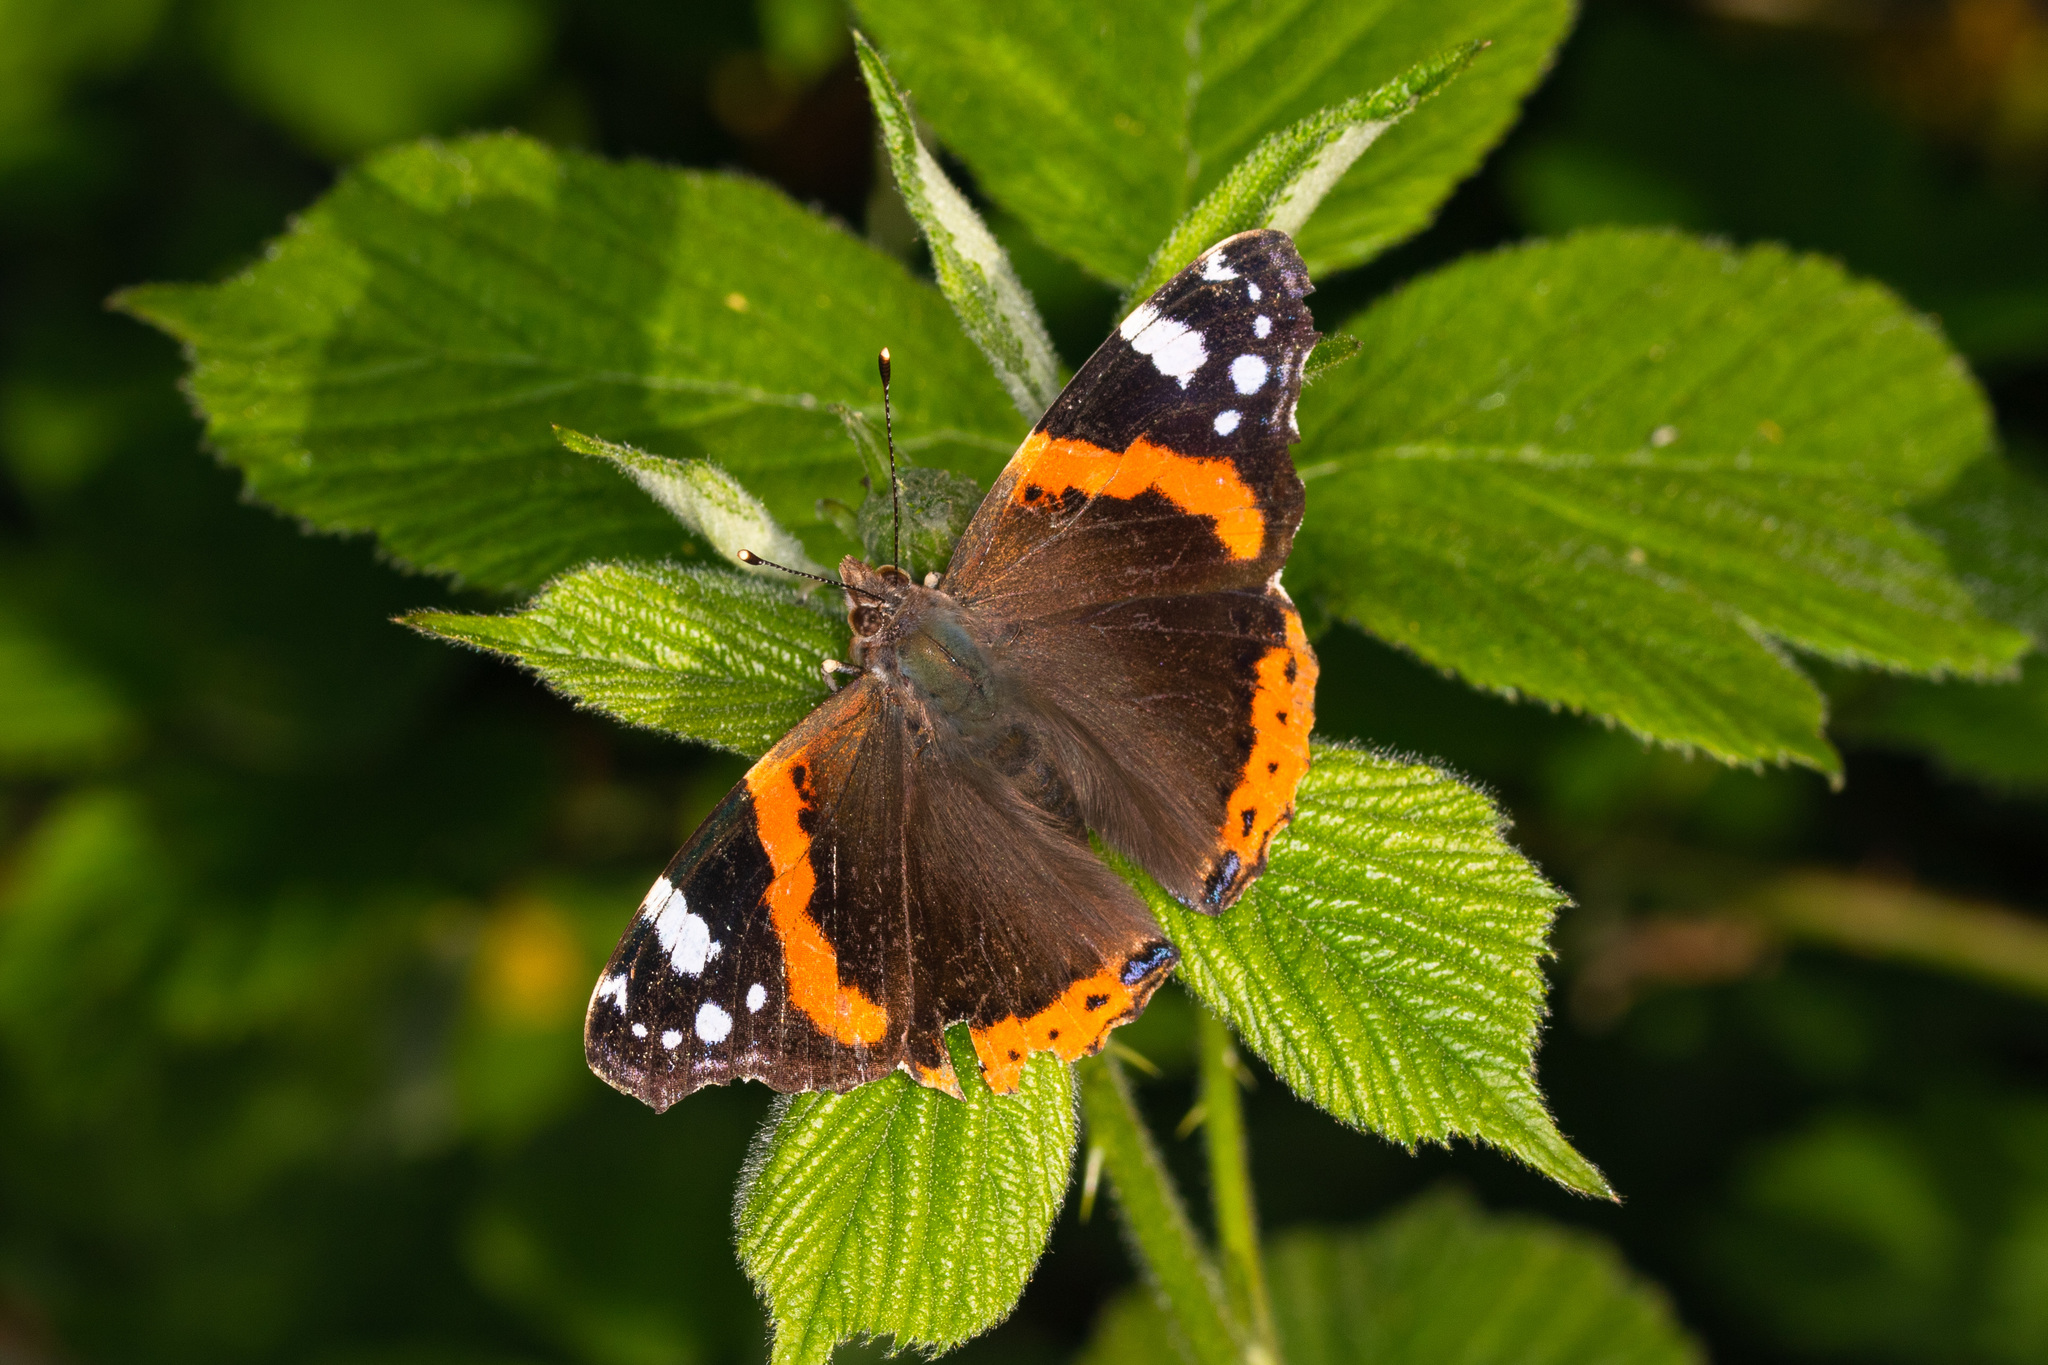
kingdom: Animalia
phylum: Arthropoda
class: Insecta
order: Lepidoptera
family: Nymphalidae
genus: Vanessa
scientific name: Vanessa atalanta
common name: Red admiral
